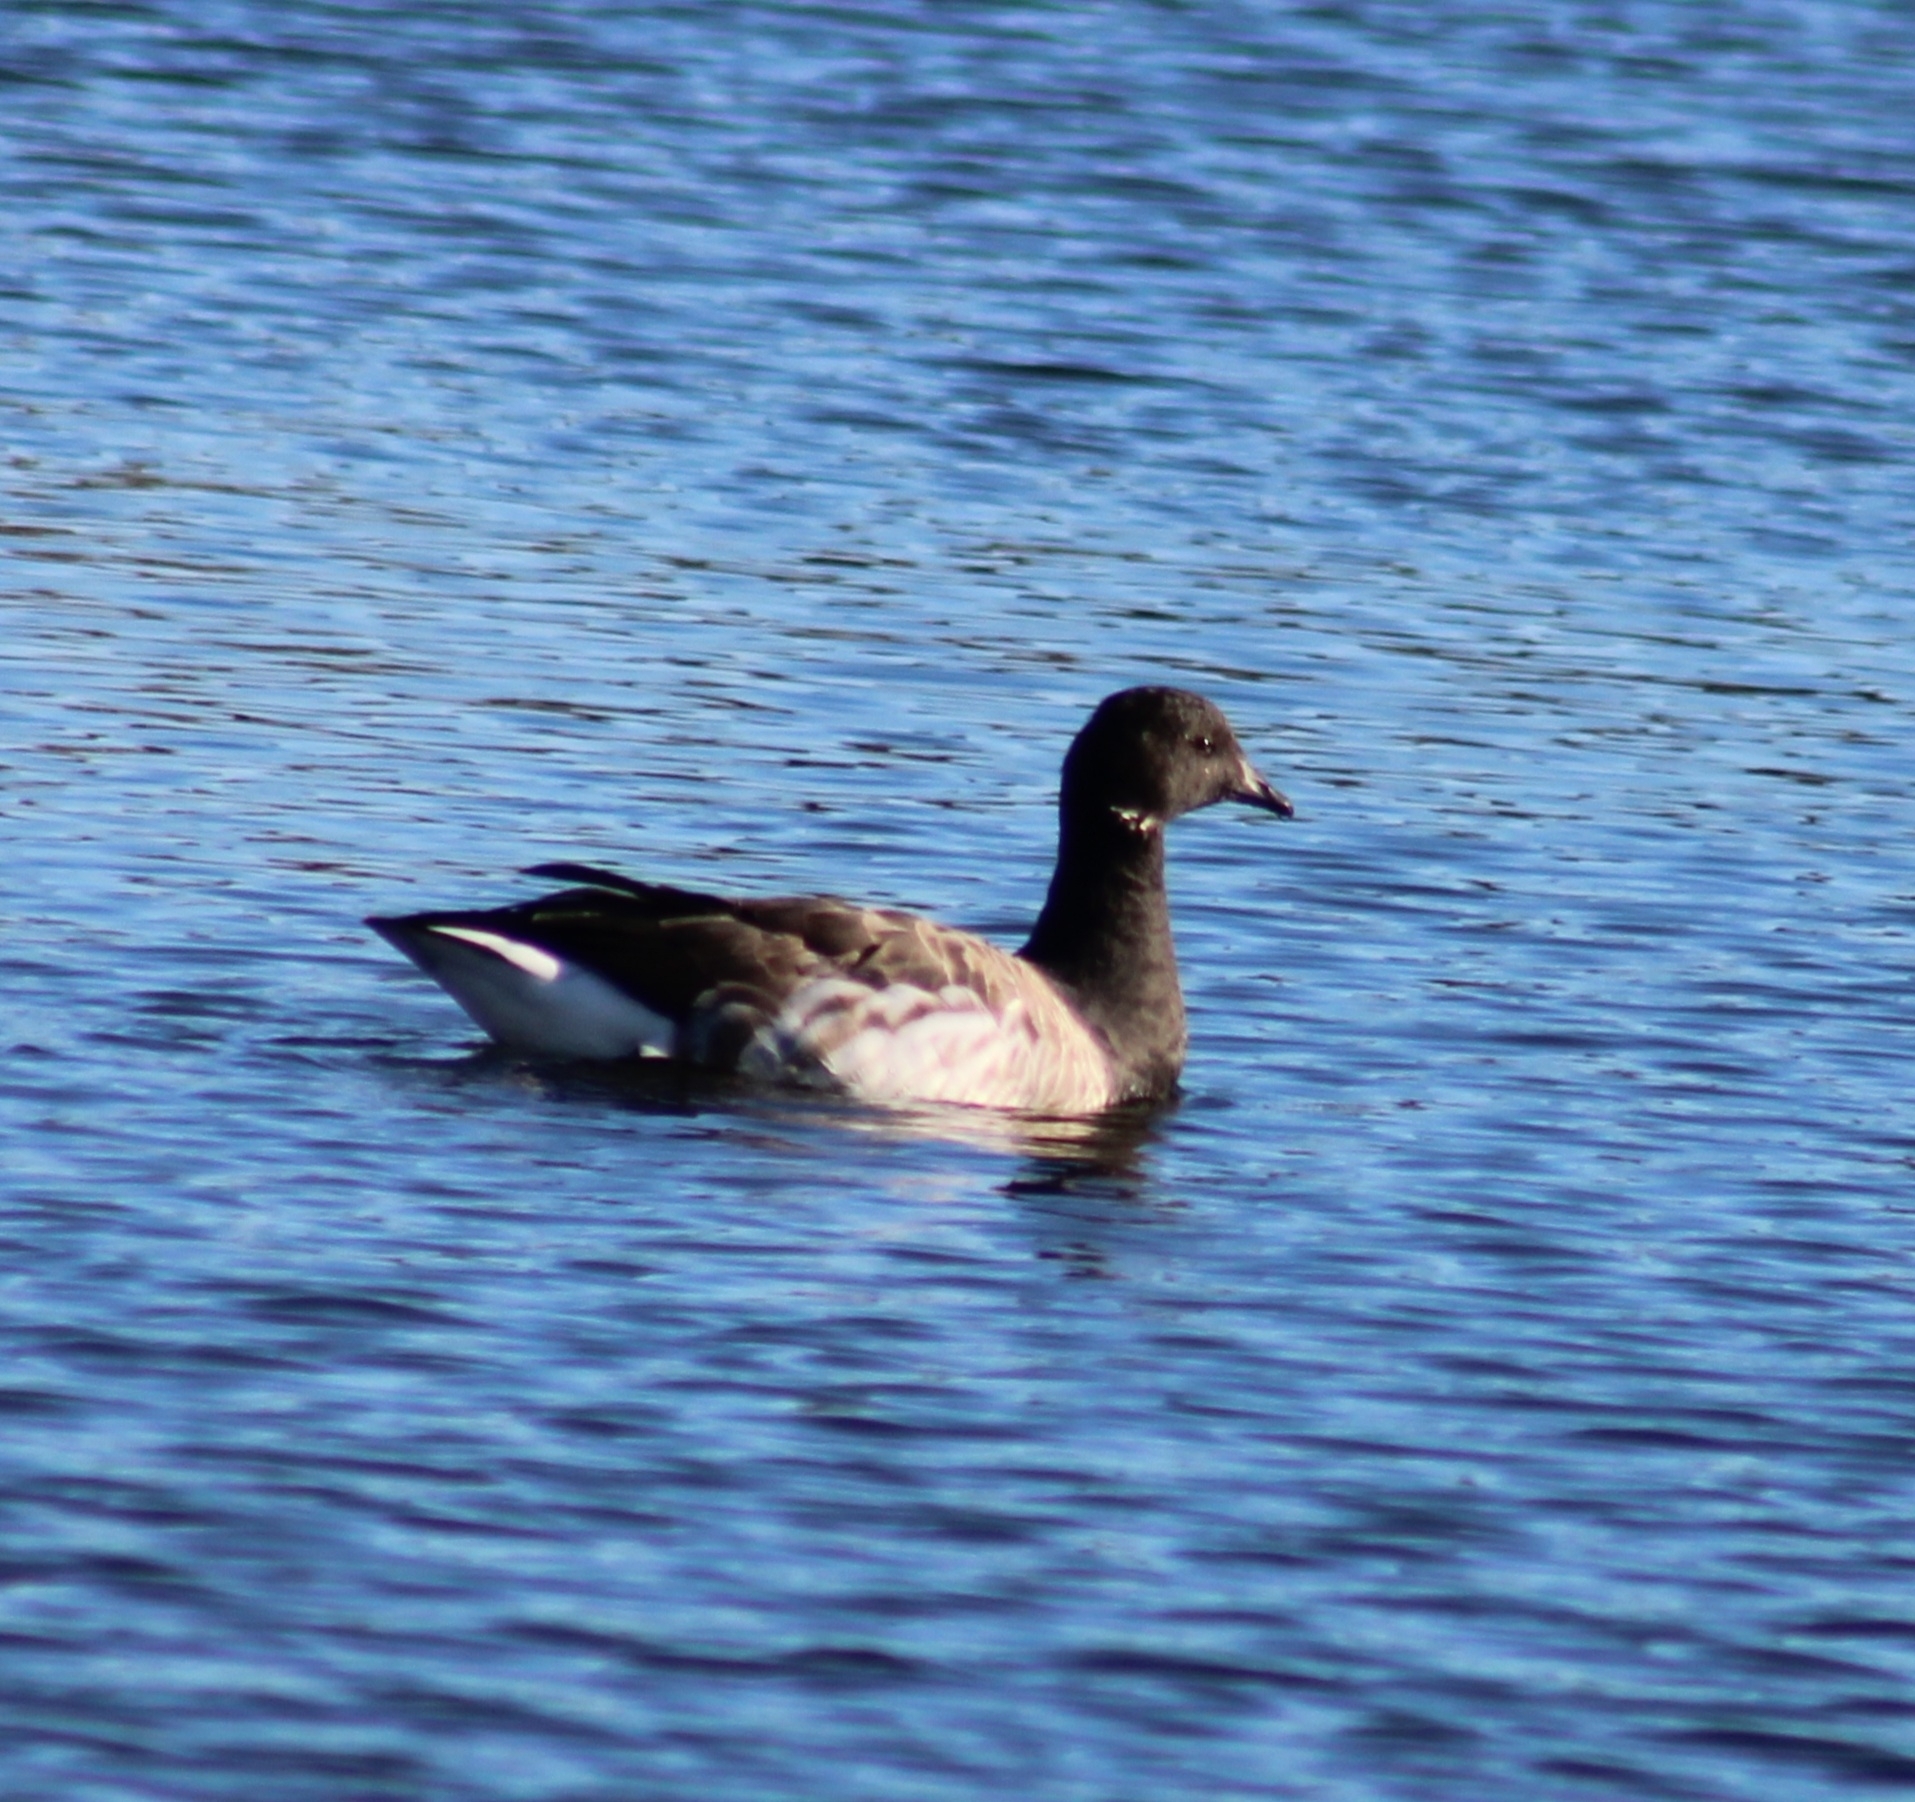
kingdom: Animalia
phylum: Chordata
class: Aves
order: Anseriformes
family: Anatidae
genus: Branta
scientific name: Branta bernicla
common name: Brant goose
